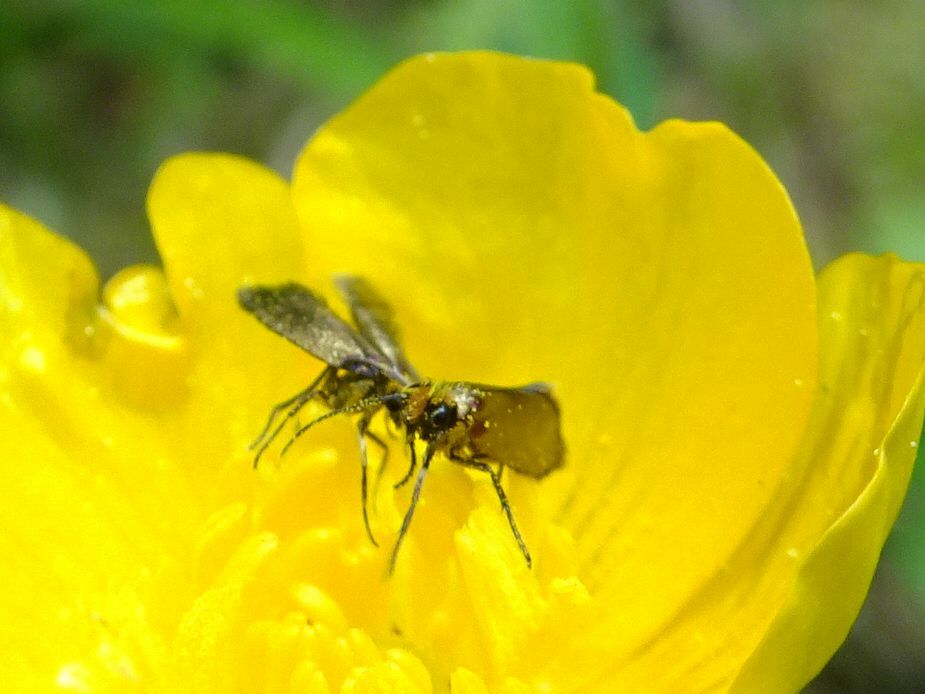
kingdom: Animalia
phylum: Arthropoda
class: Insecta
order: Lepidoptera
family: Micropterigidae
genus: Micropterix
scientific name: Micropterix calthella
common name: Plain gold
